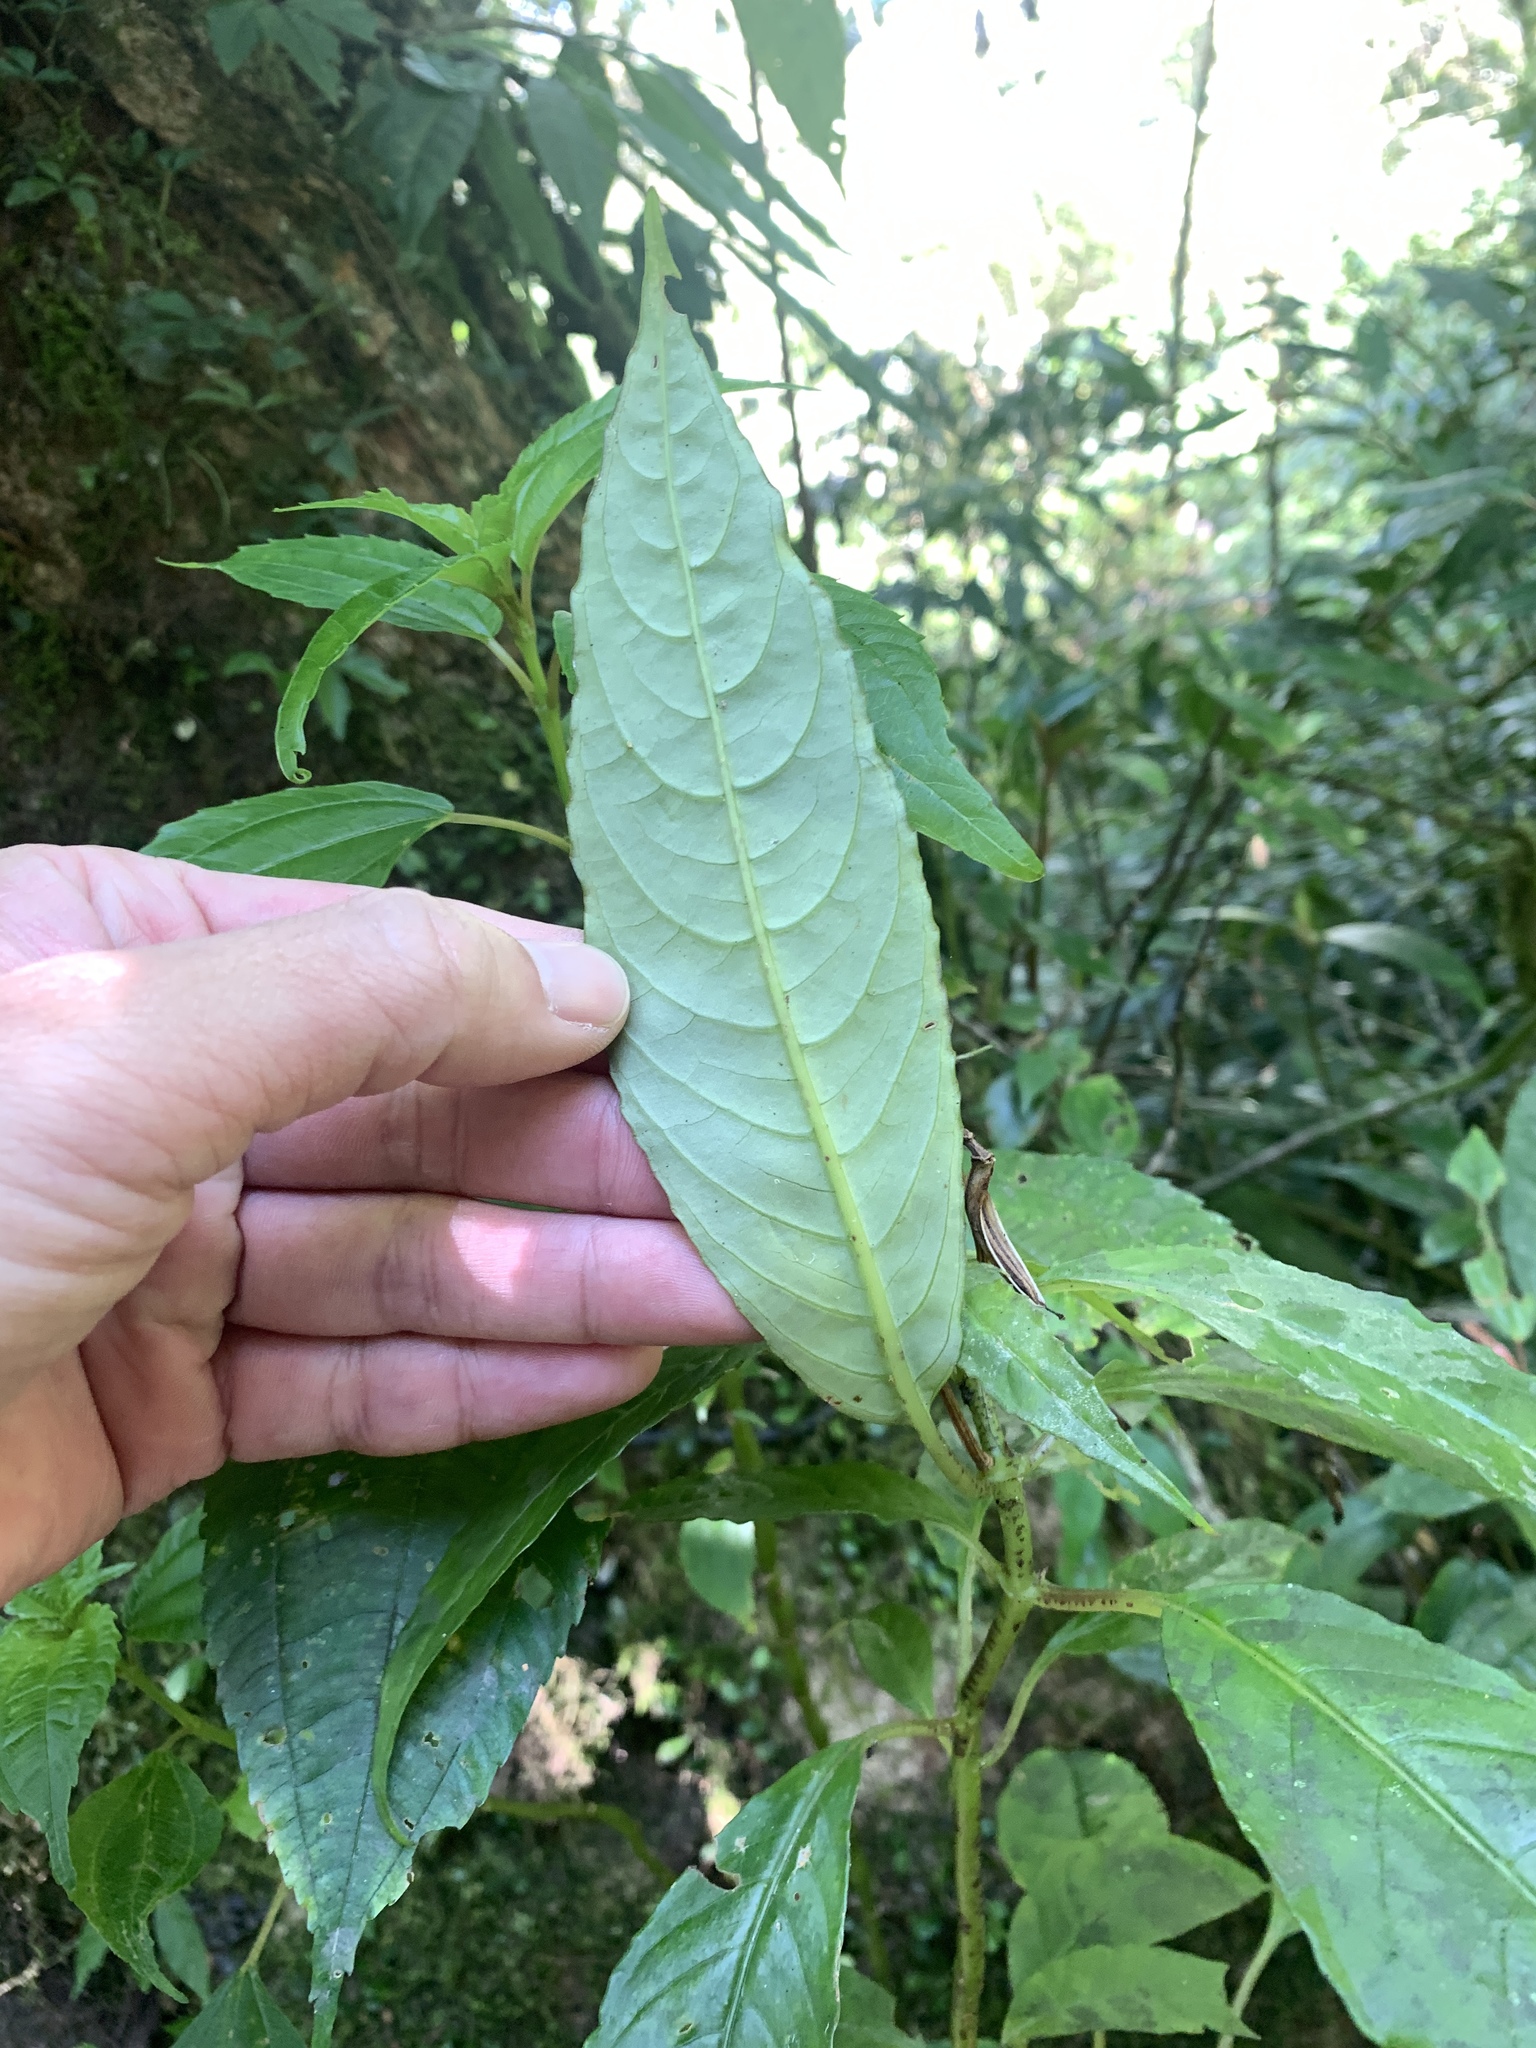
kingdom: Plantae
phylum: Tracheophyta
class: Magnoliopsida
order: Lamiales
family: Gesneriaceae
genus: Hemiboea
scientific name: Hemiboea bicornuta
